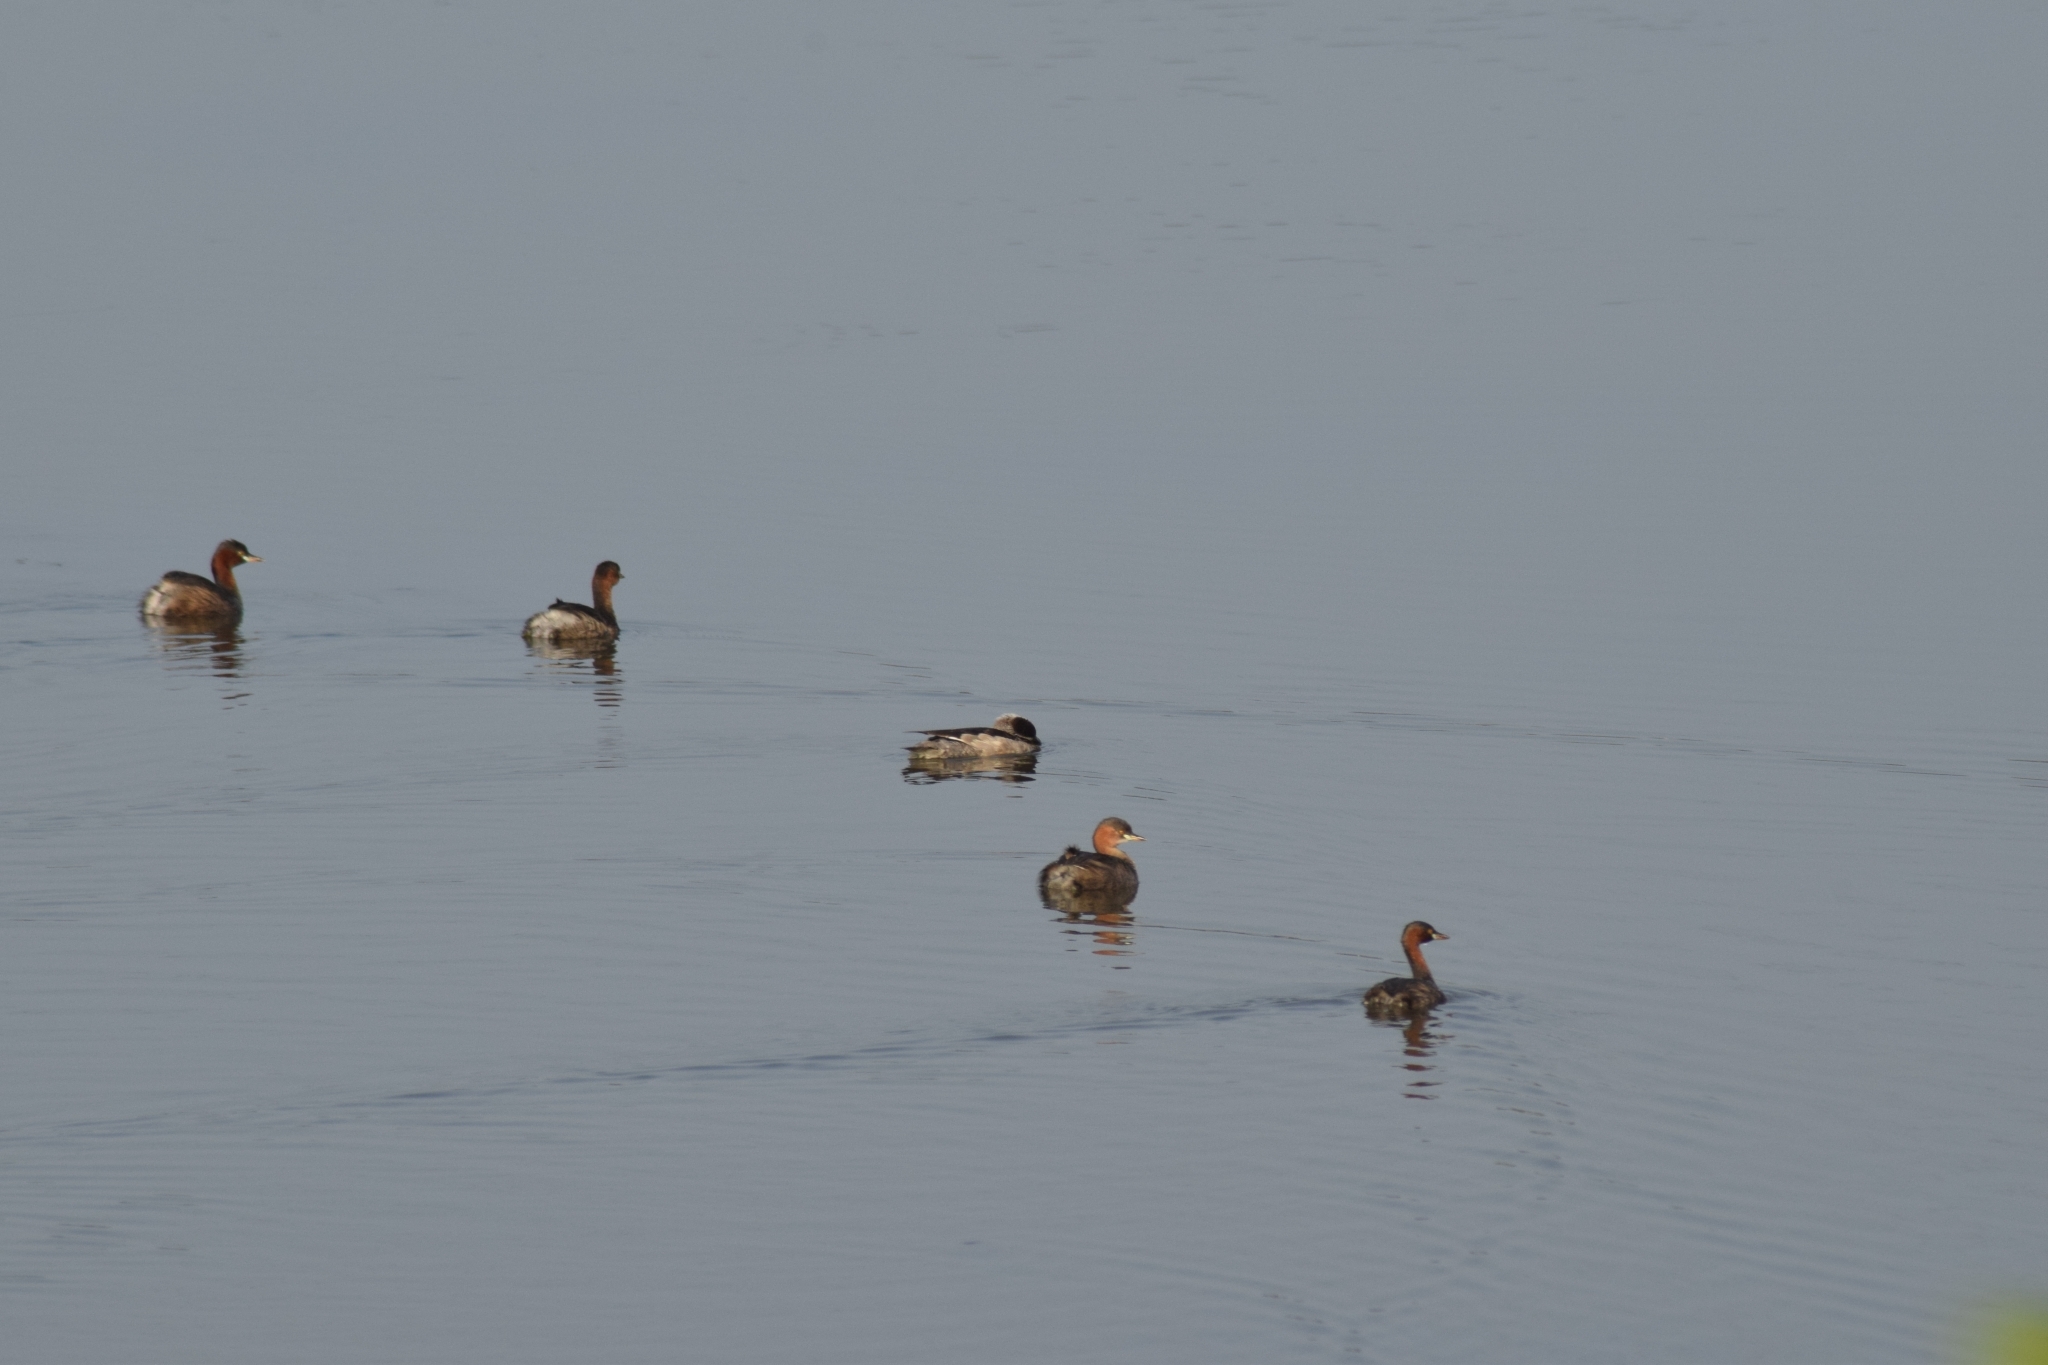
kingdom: Animalia
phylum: Chordata
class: Aves
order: Podicipediformes
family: Podicipedidae
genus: Tachybaptus
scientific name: Tachybaptus ruficollis
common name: Little grebe
